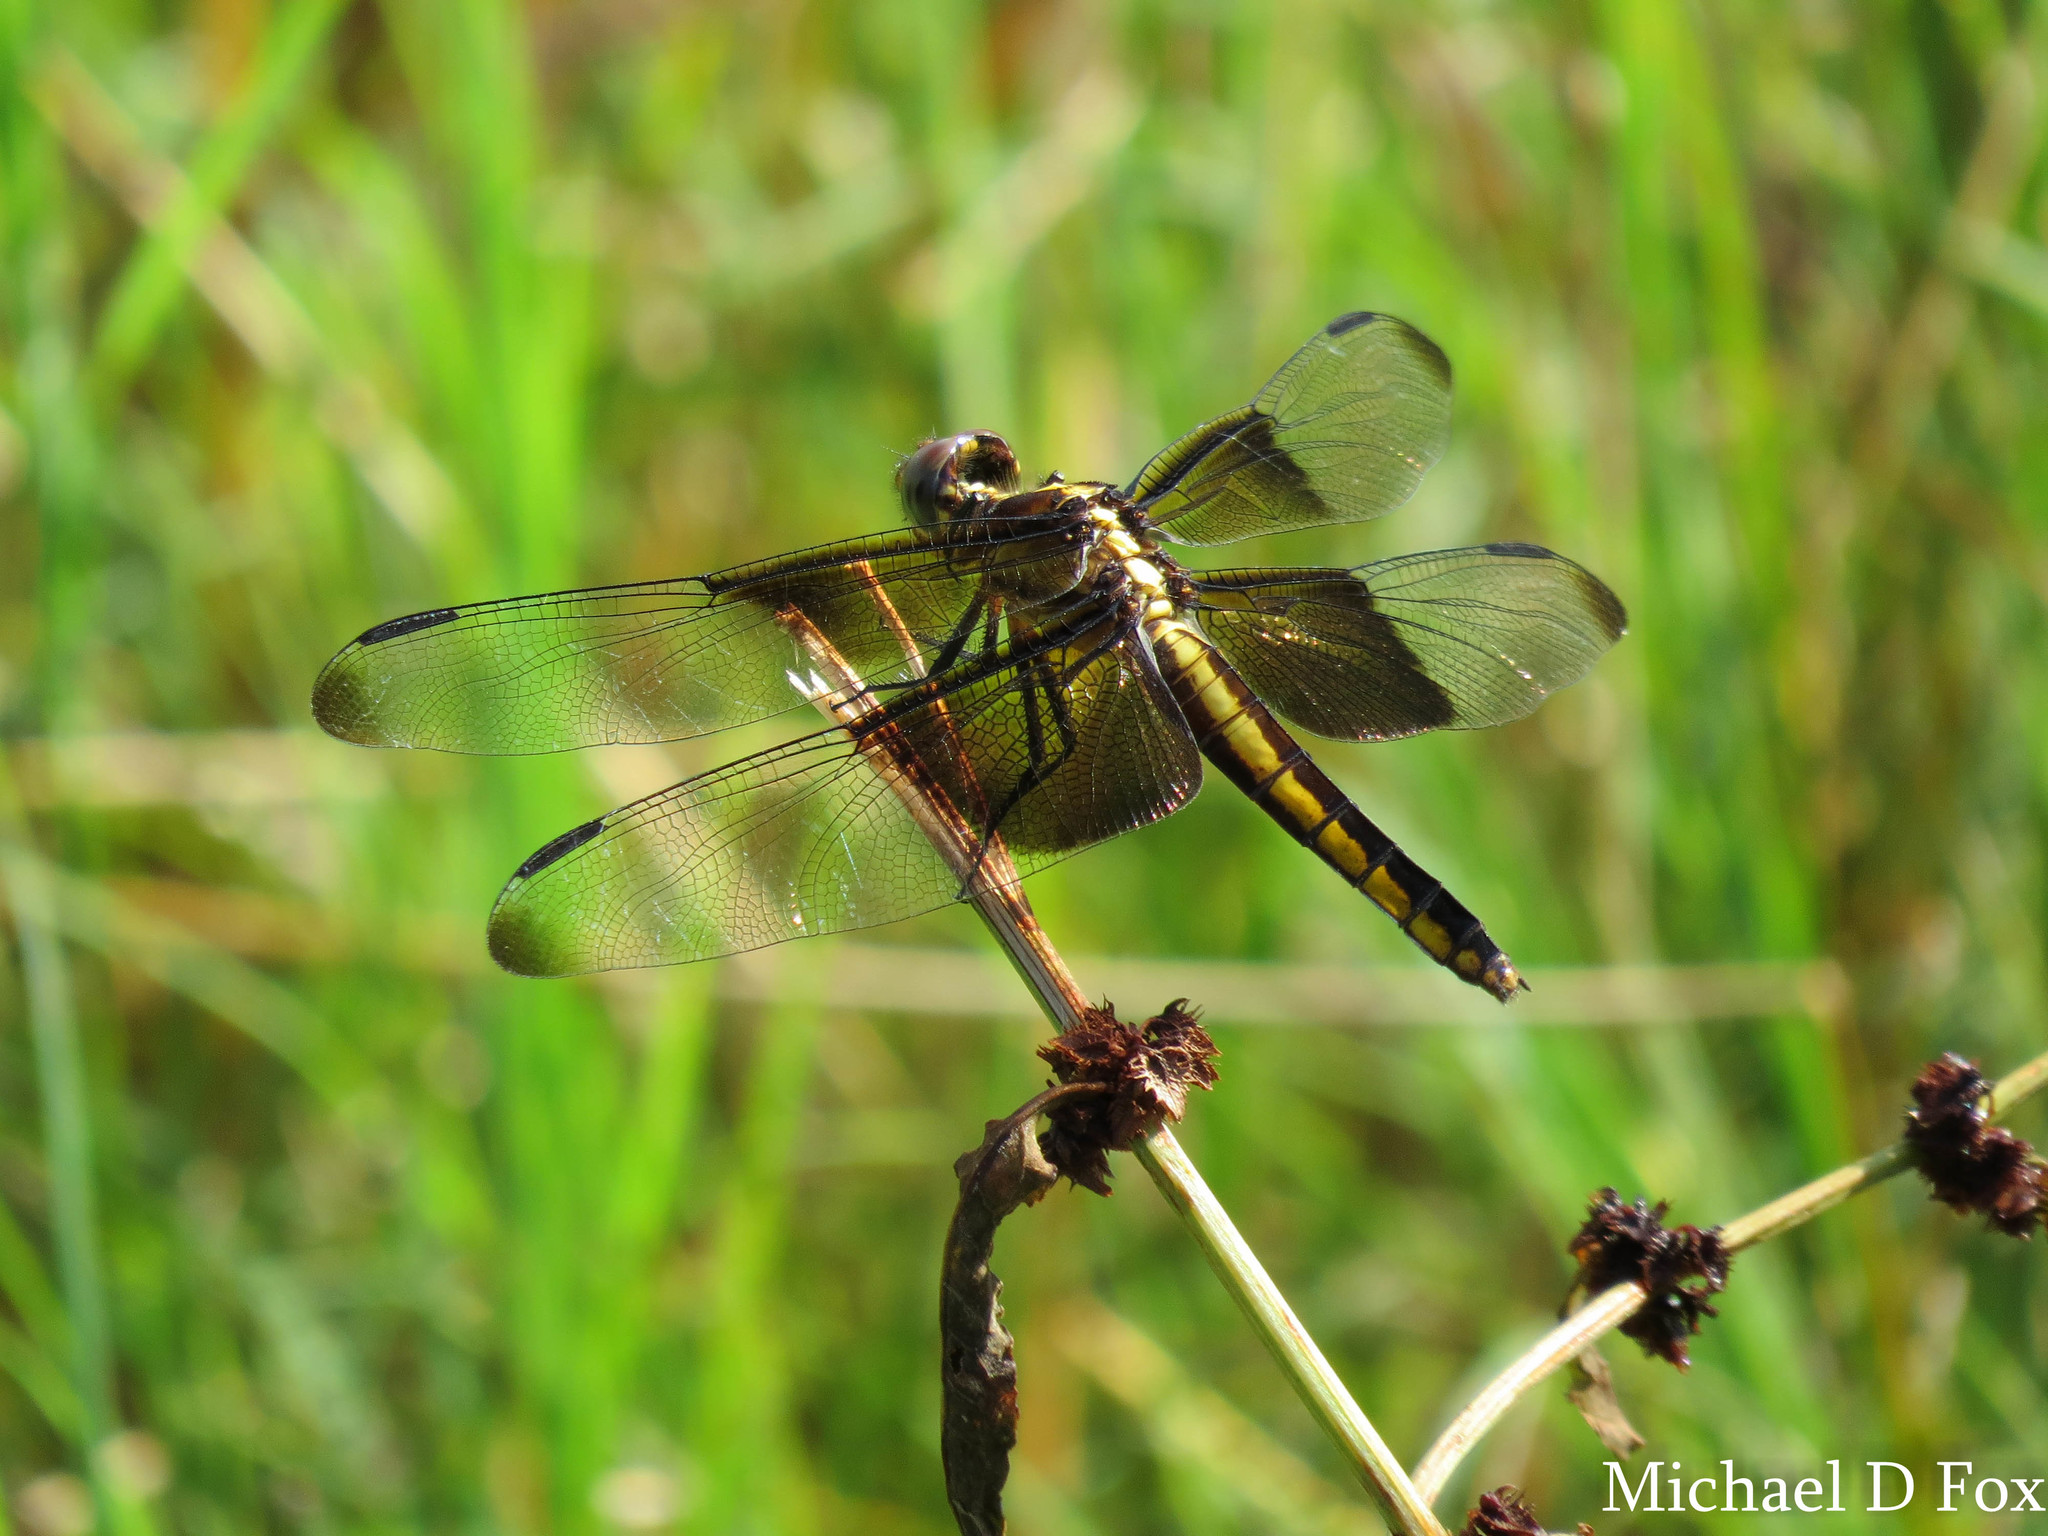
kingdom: Animalia
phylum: Arthropoda
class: Insecta
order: Odonata
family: Libellulidae
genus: Libellula
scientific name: Libellula luctuosa
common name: Widow skimmer
